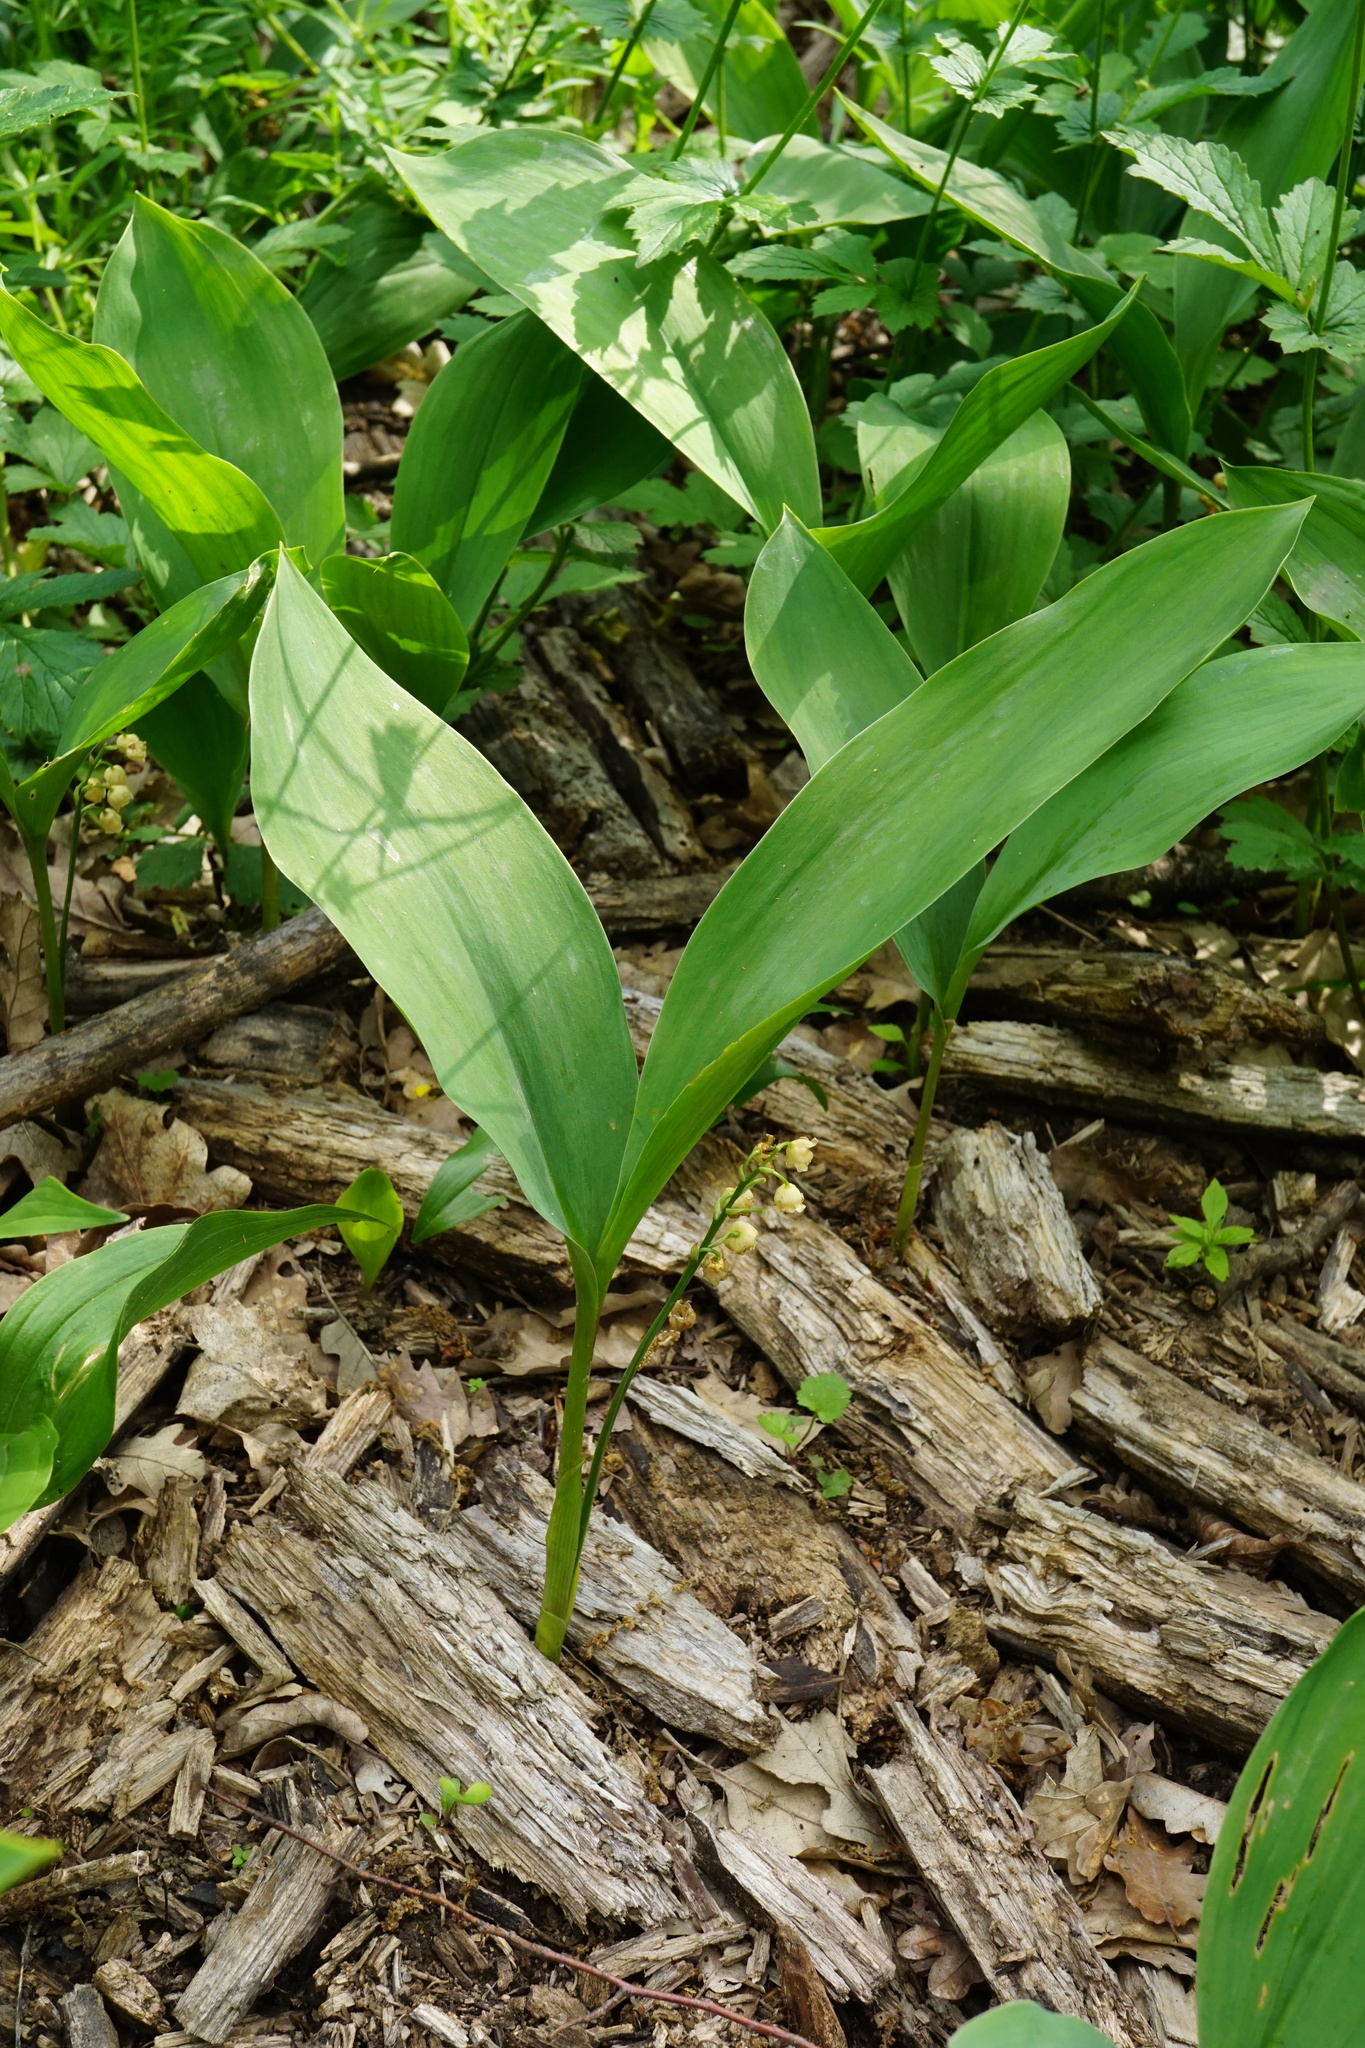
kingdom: Plantae
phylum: Tracheophyta
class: Liliopsida
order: Asparagales
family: Asparagaceae
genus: Convallaria
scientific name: Convallaria majalis
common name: Lily-of-the-valley
